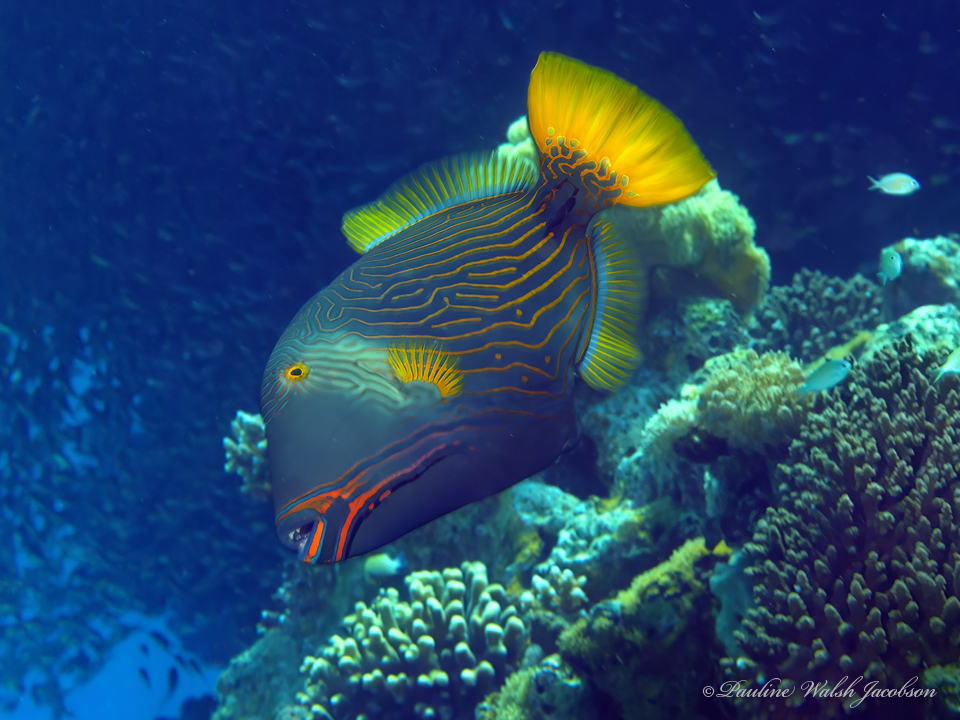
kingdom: Animalia
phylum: Chordata
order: Tetraodontiformes
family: Balistidae
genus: Balistapus
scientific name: Balistapus undulatus
